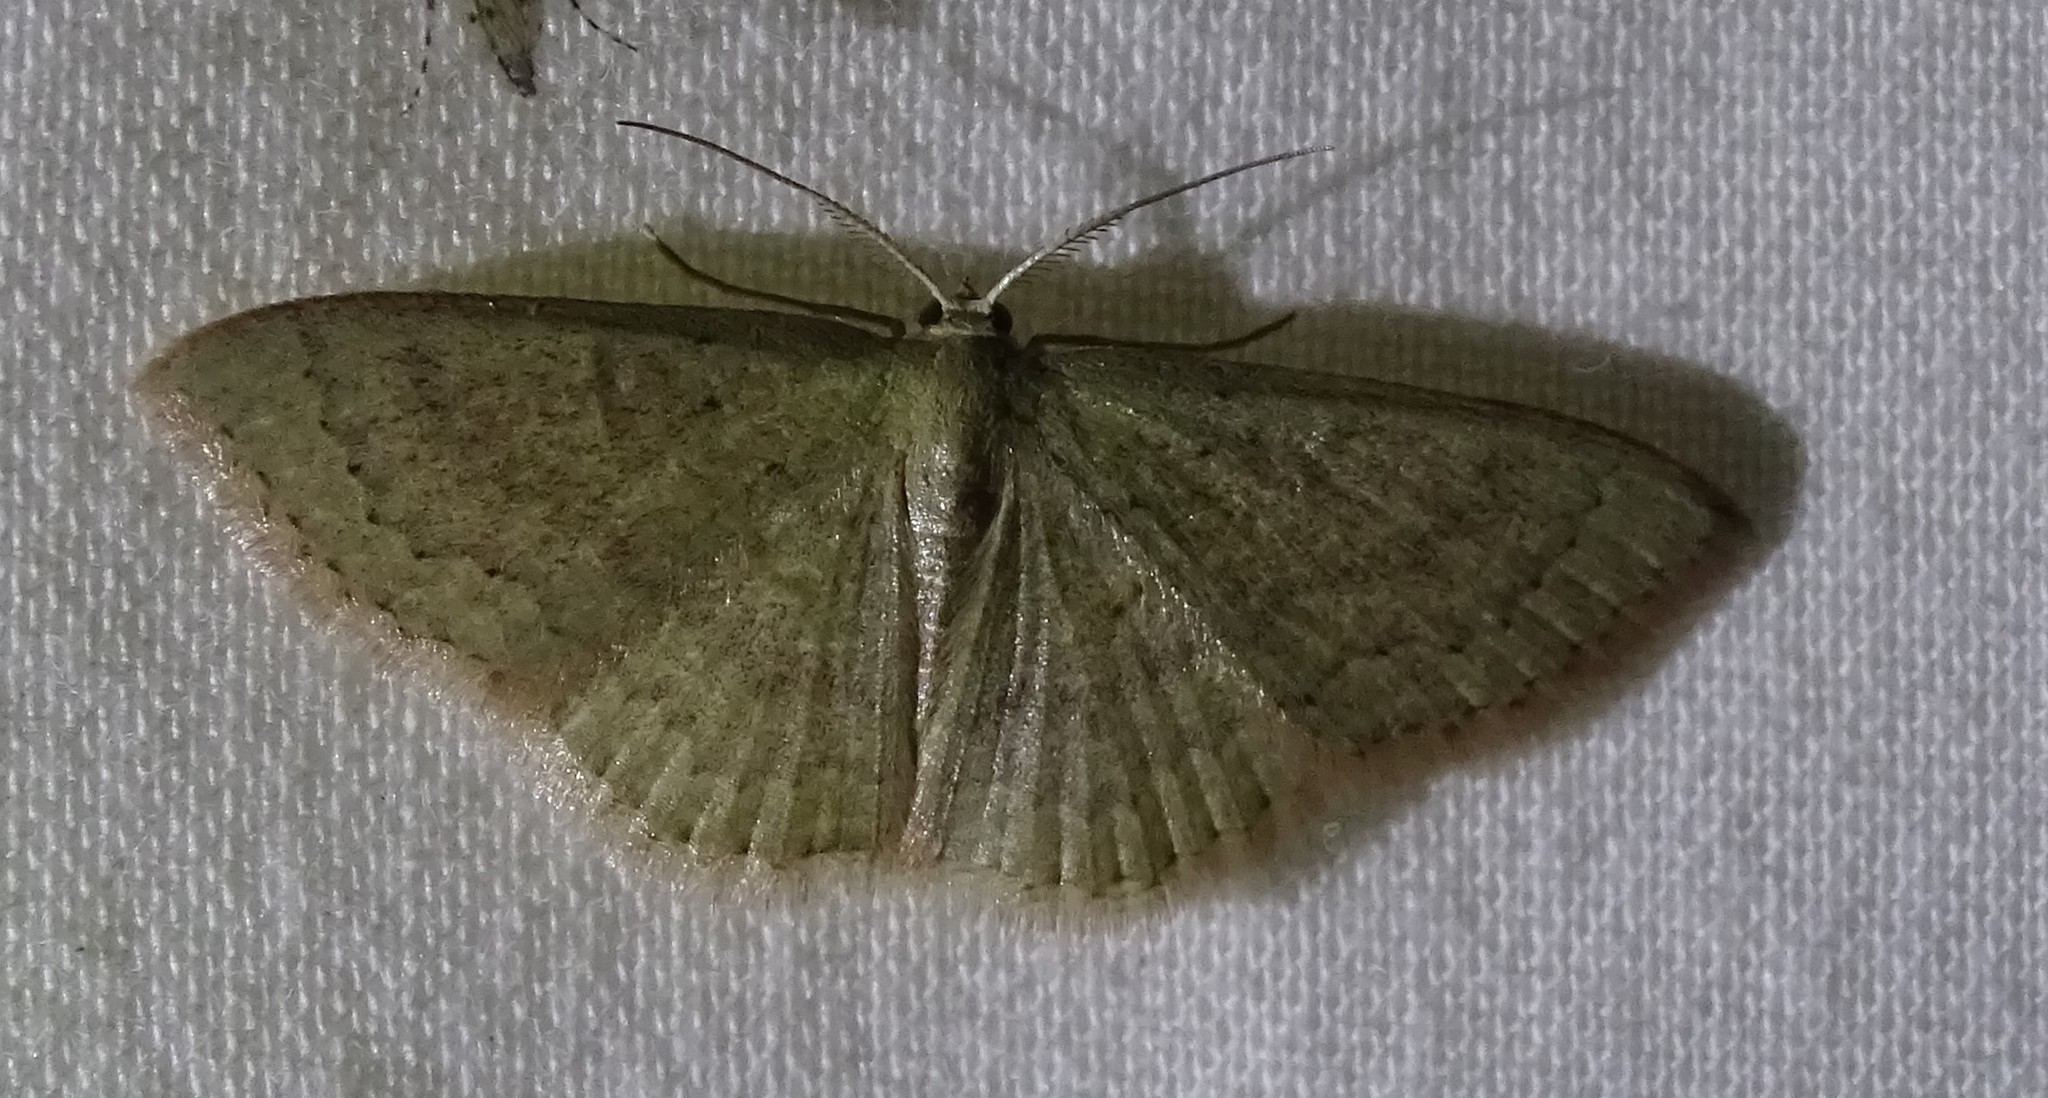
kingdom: Animalia
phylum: Arthropoda
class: Insecta
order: Lepidoptera
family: Geometridae
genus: Pleuroprucha
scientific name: Pleuroprucha insulsaria
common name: Common tan wave
